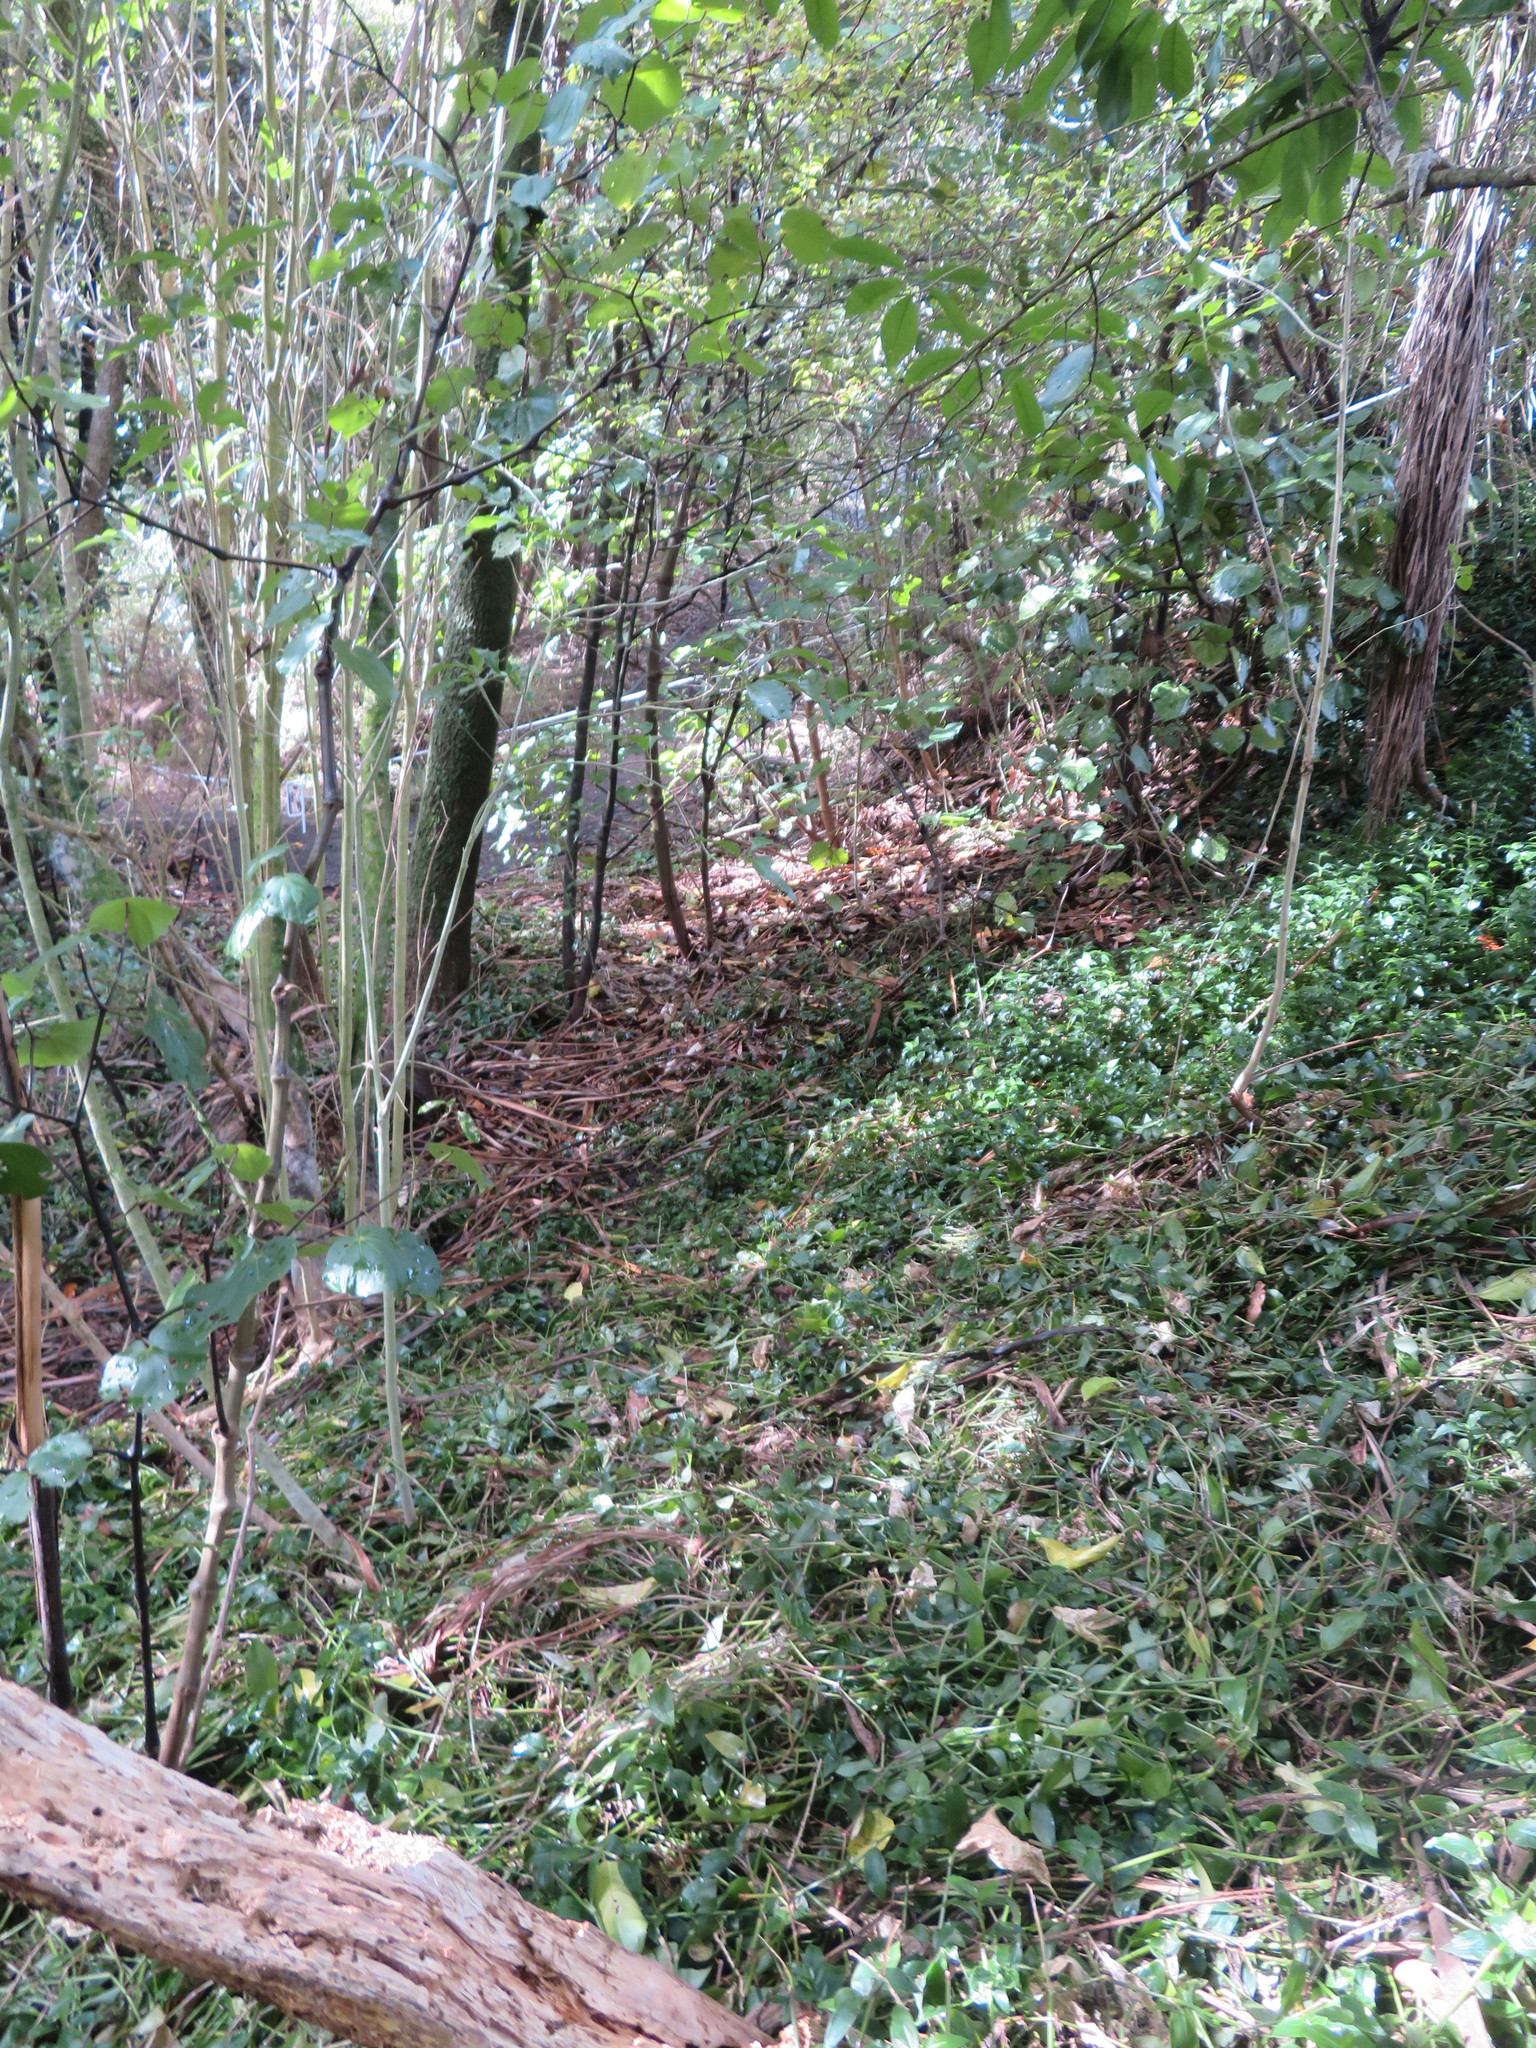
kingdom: Plantae
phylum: Tracheophyta
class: Liliopsida
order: Commelinales
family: Commelinaceae
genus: Tradescantia
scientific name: Tradescantia fluminensis
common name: Wandering-jew
